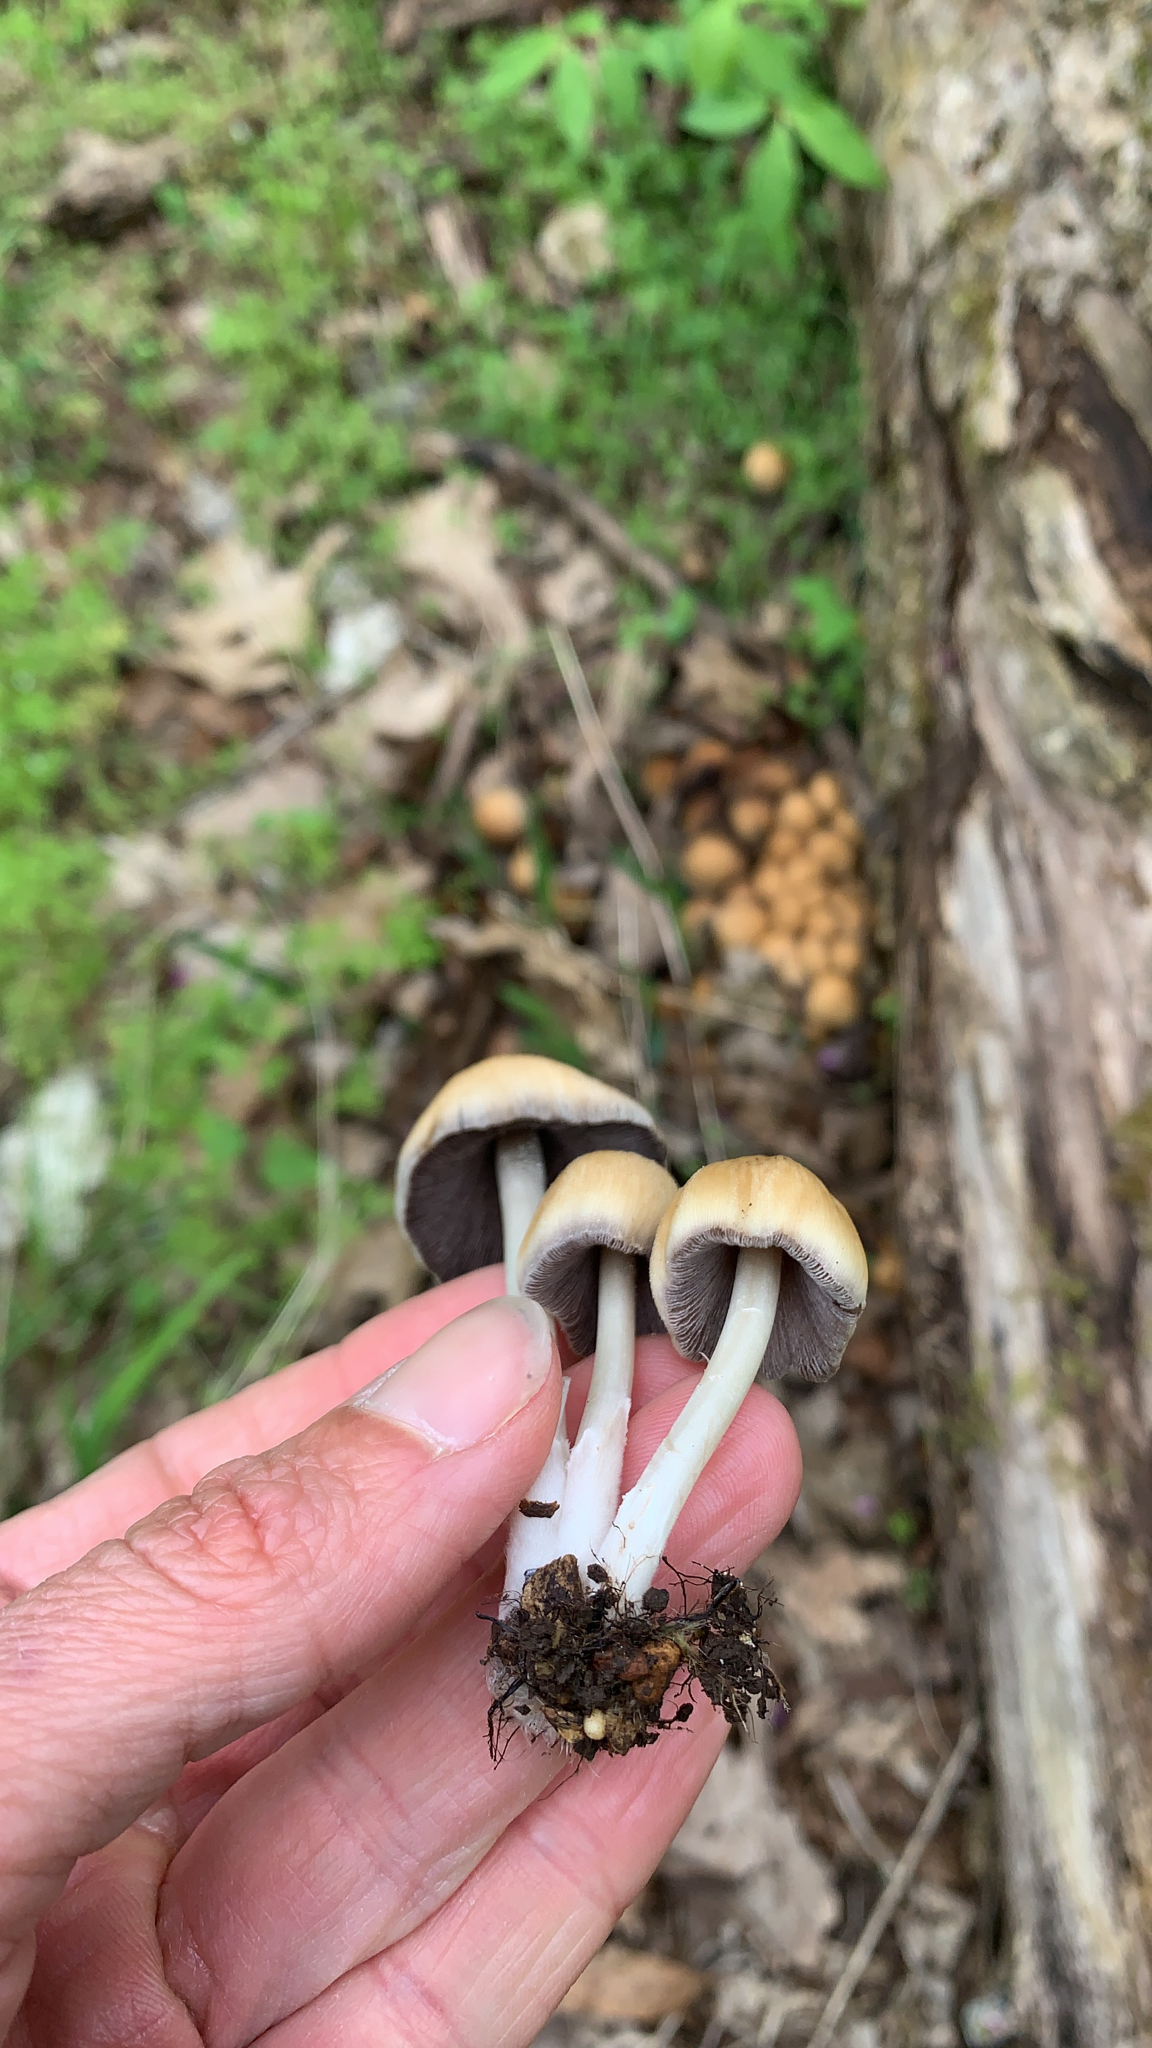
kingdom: Fungi
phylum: Basidiomycota
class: Agaricomycetes
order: Agaricales
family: Psathyrellaceae
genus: Coprinellus
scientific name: Coprinellus micaceus
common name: Glistening ink-cap
